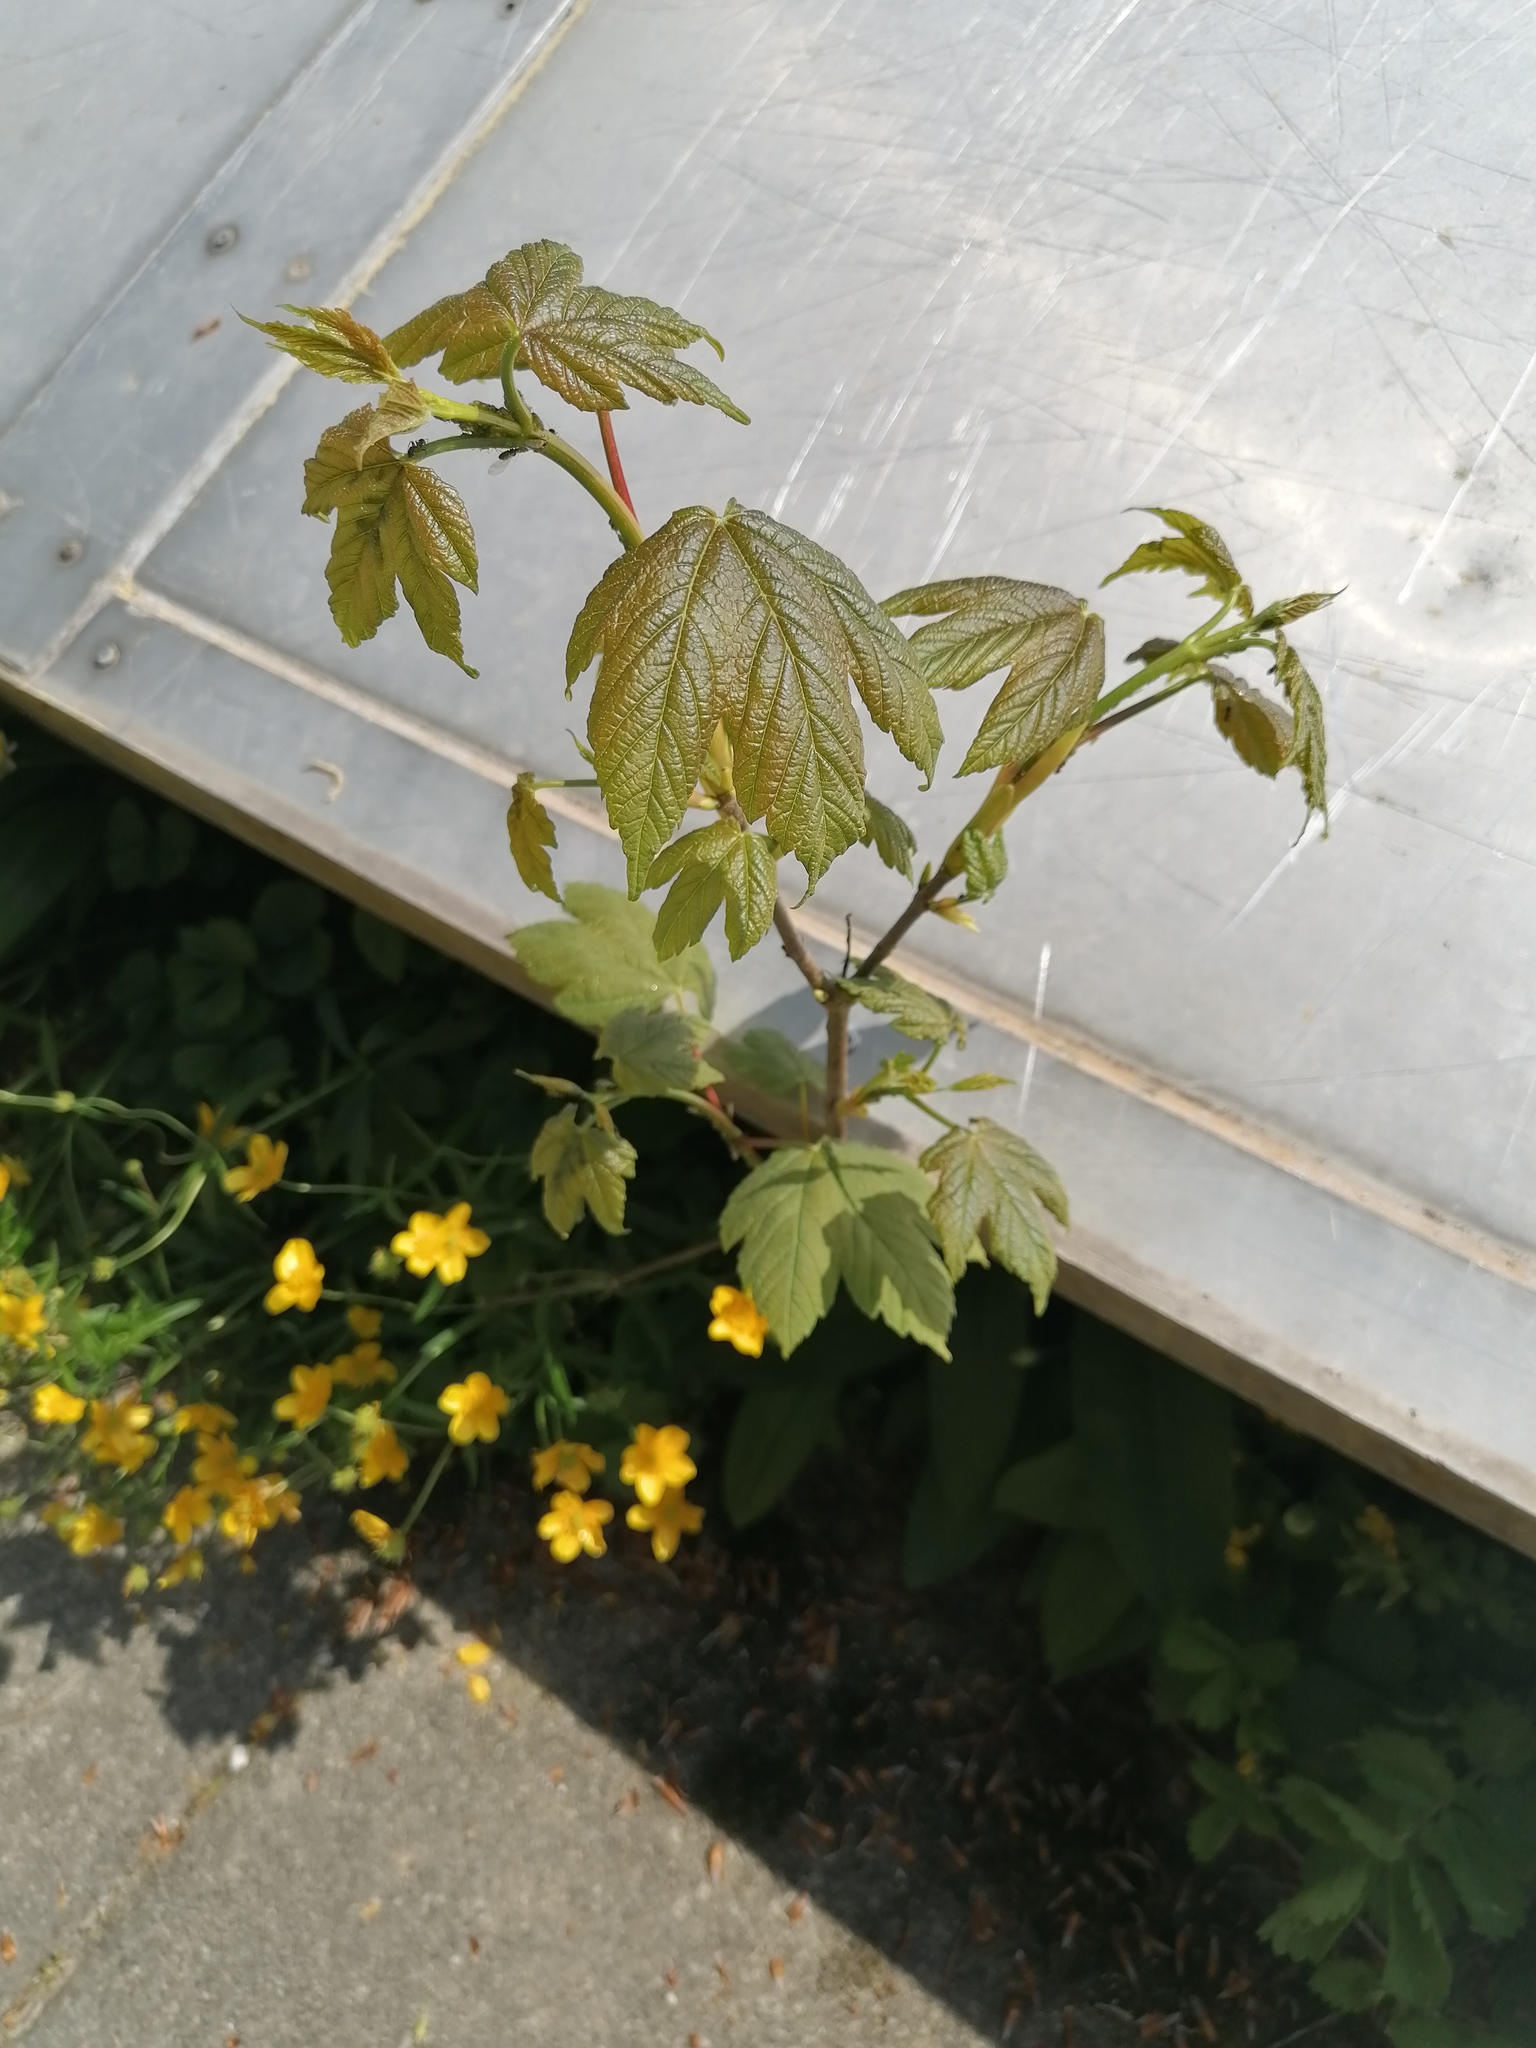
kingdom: Plantae
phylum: Tracheophyta
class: Magnoliopsida
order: Sapindales
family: Sapindaceae
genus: Acer
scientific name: Acer pseudoplatanus
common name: Sycamore
